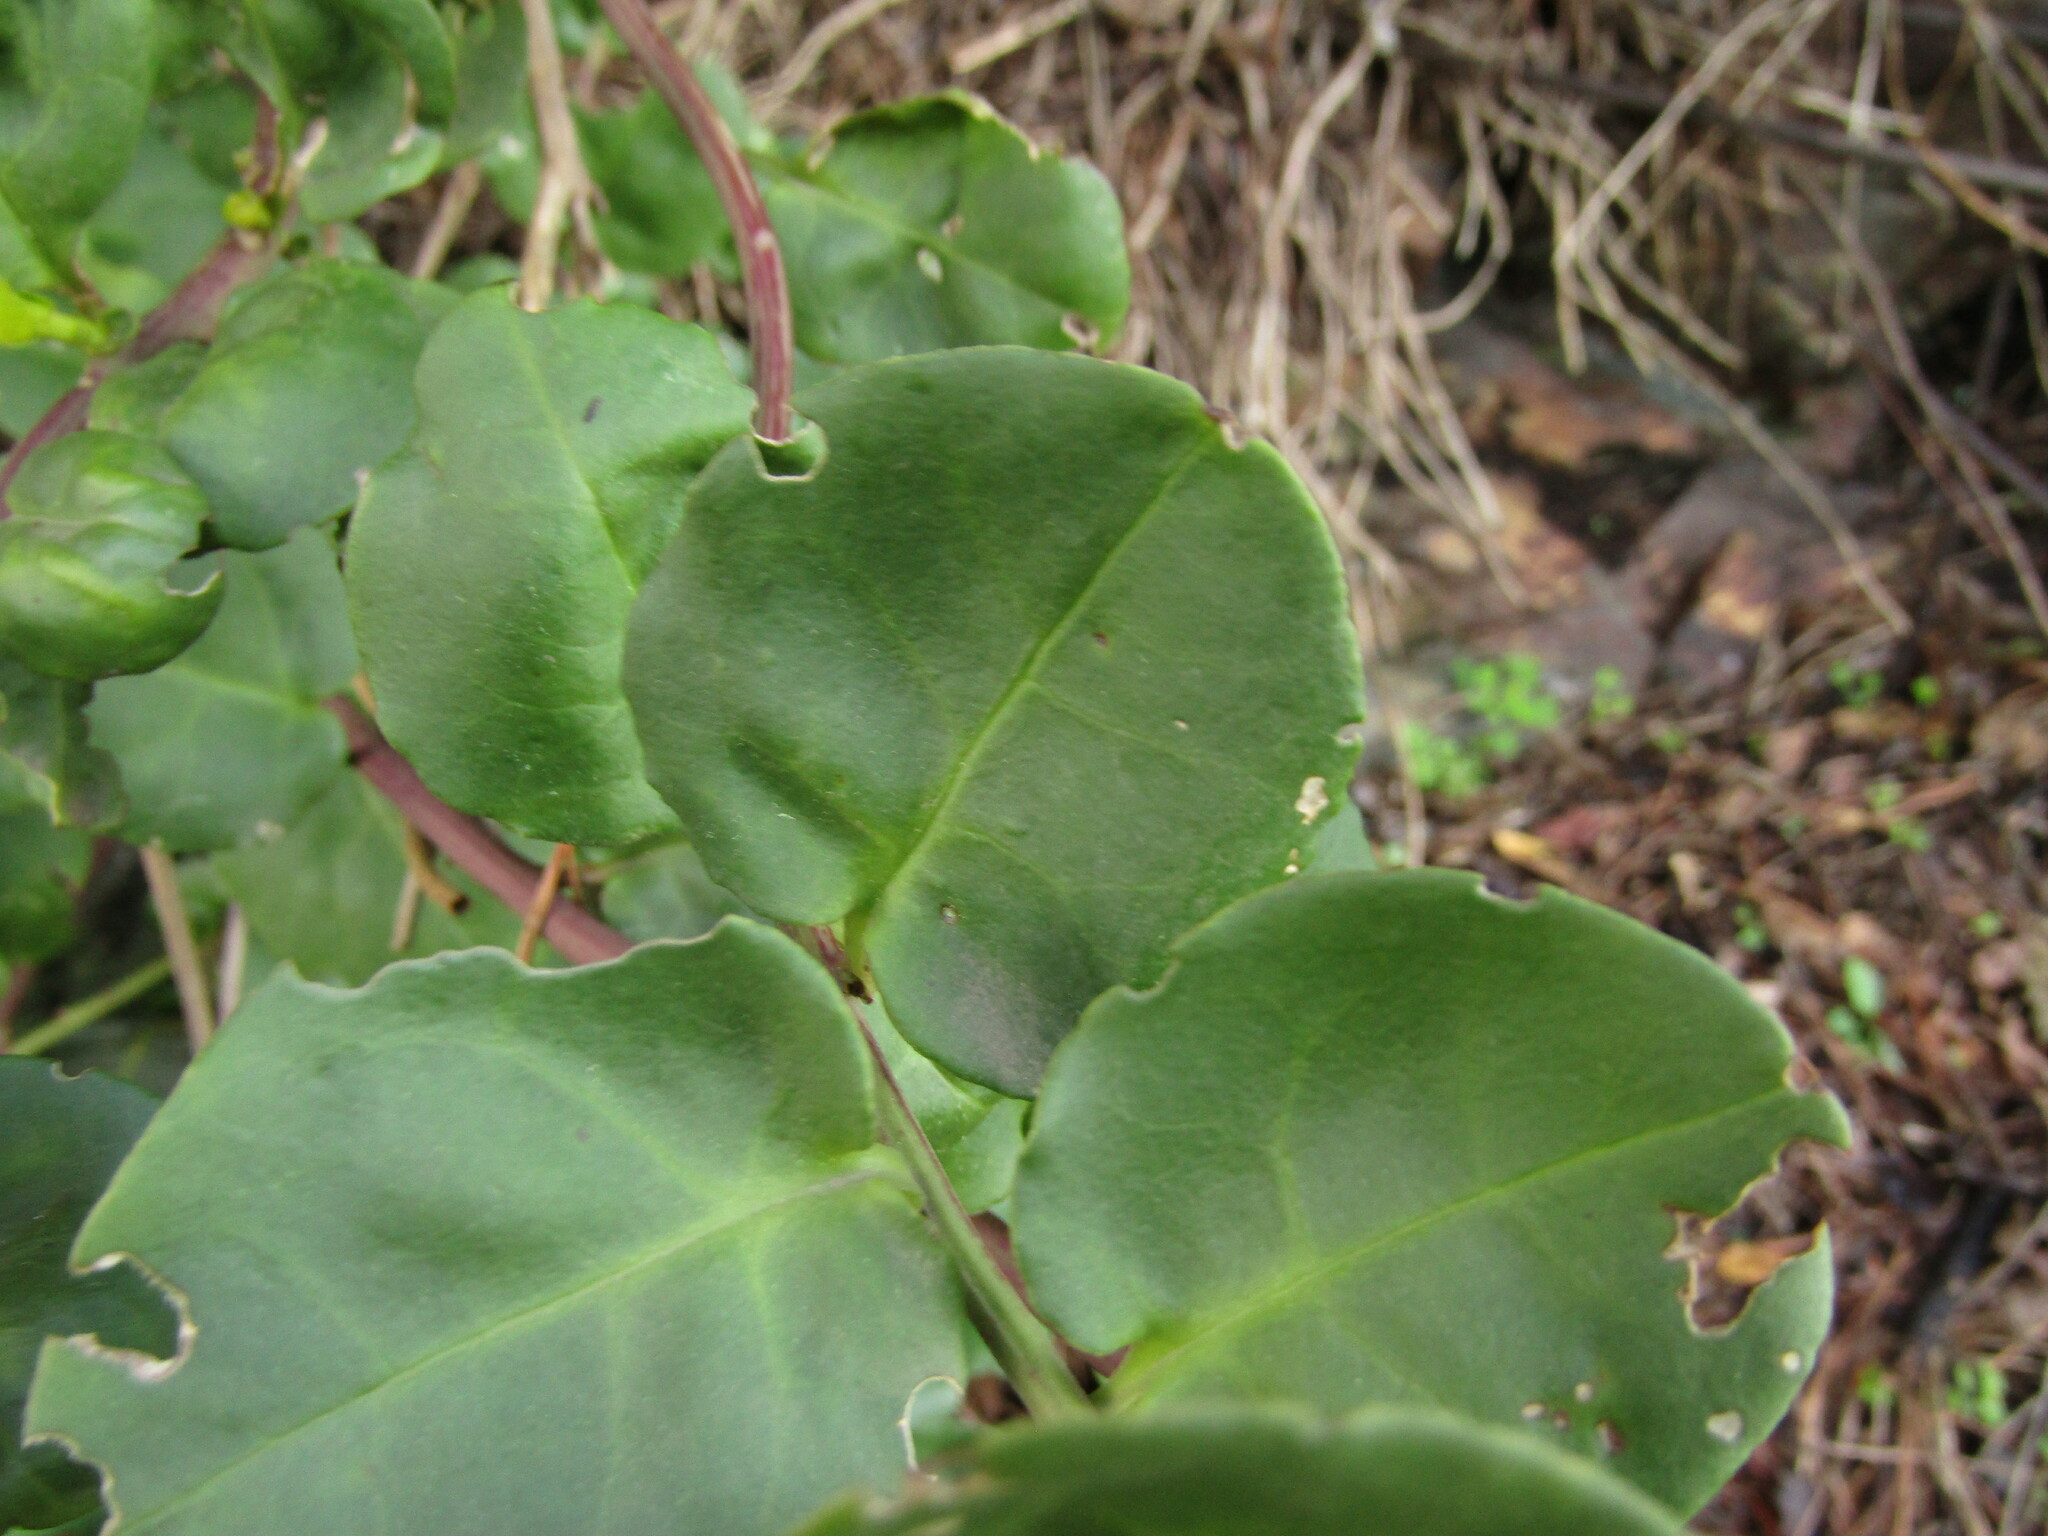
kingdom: Plantae
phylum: Tracheophyta
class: Magnoliopsida
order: Caryophyllales
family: Phytolaccaceae
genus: Ercilla
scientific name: Ercilla spicata
